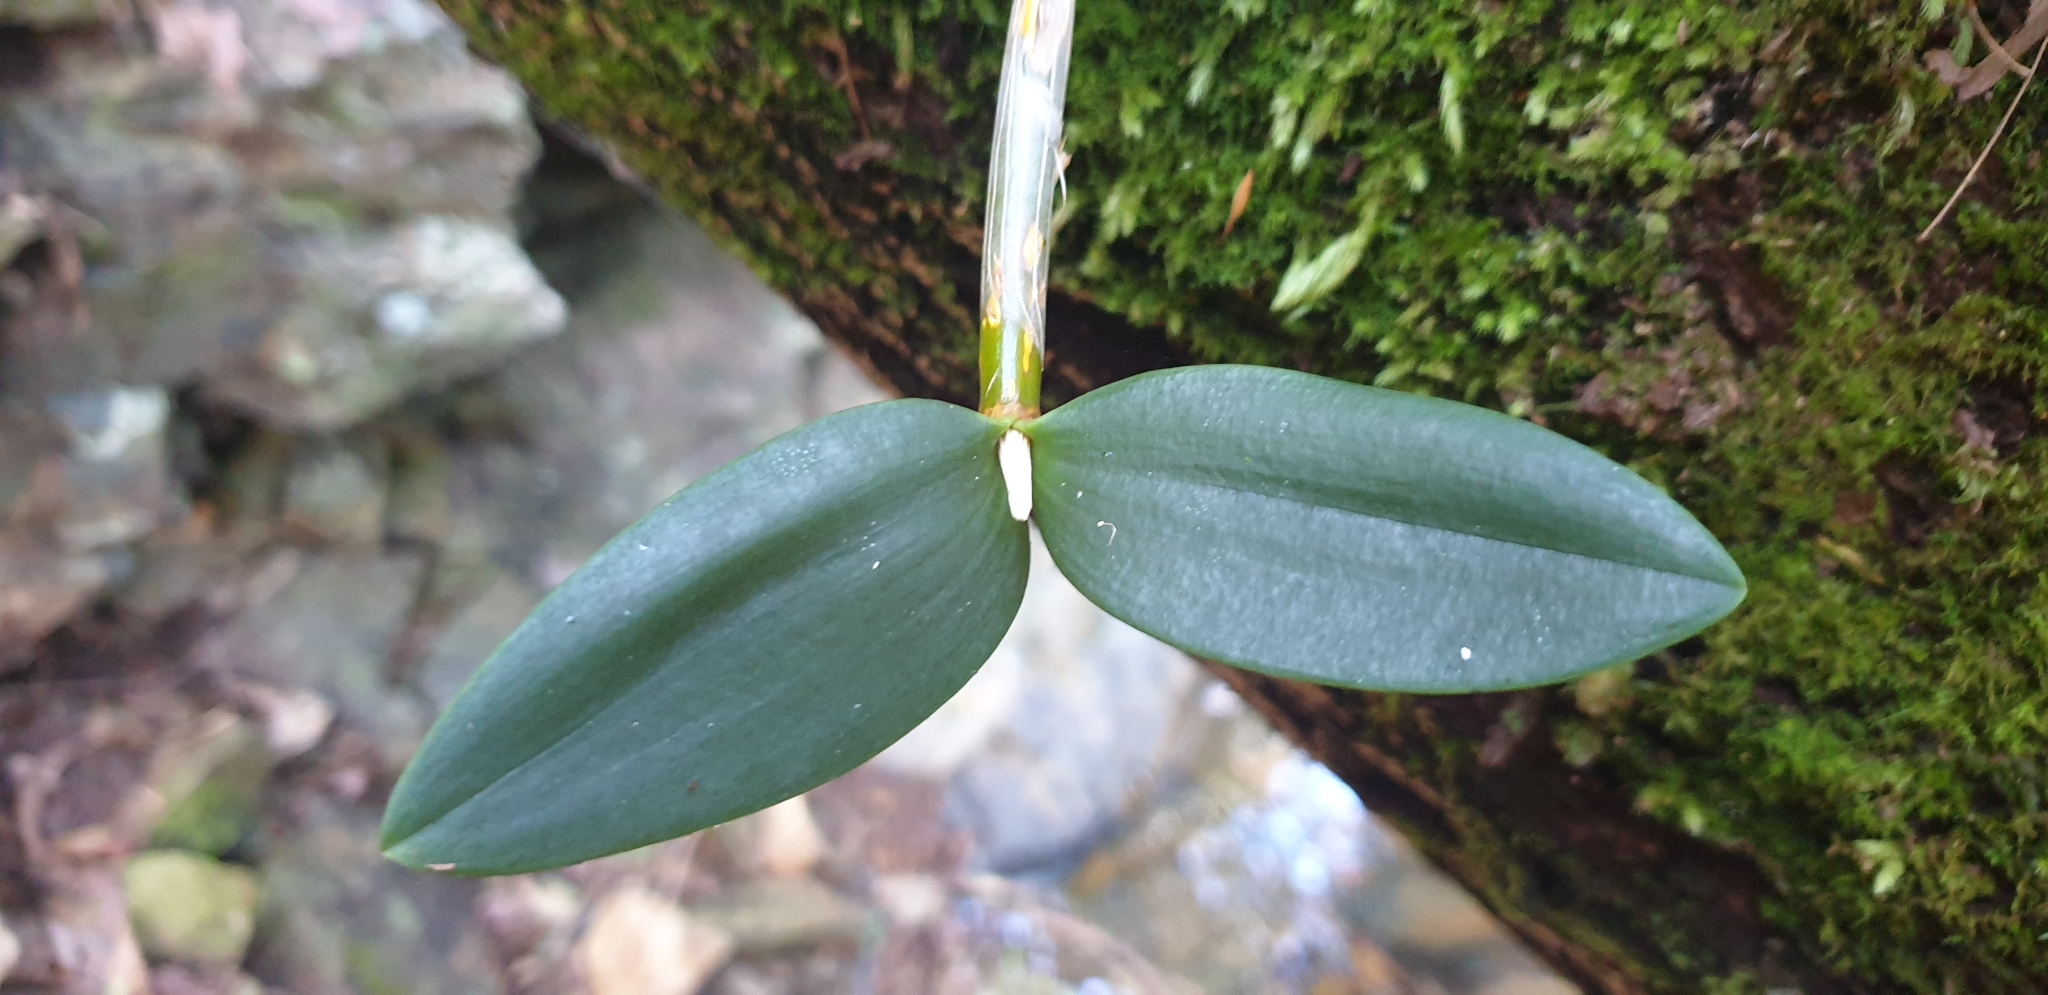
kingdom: Plantae
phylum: Tracheophyta
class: Liliopsida
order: Asparagales
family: Orchidaceae
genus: Dendrobium
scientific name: Dendrobium aemulum
